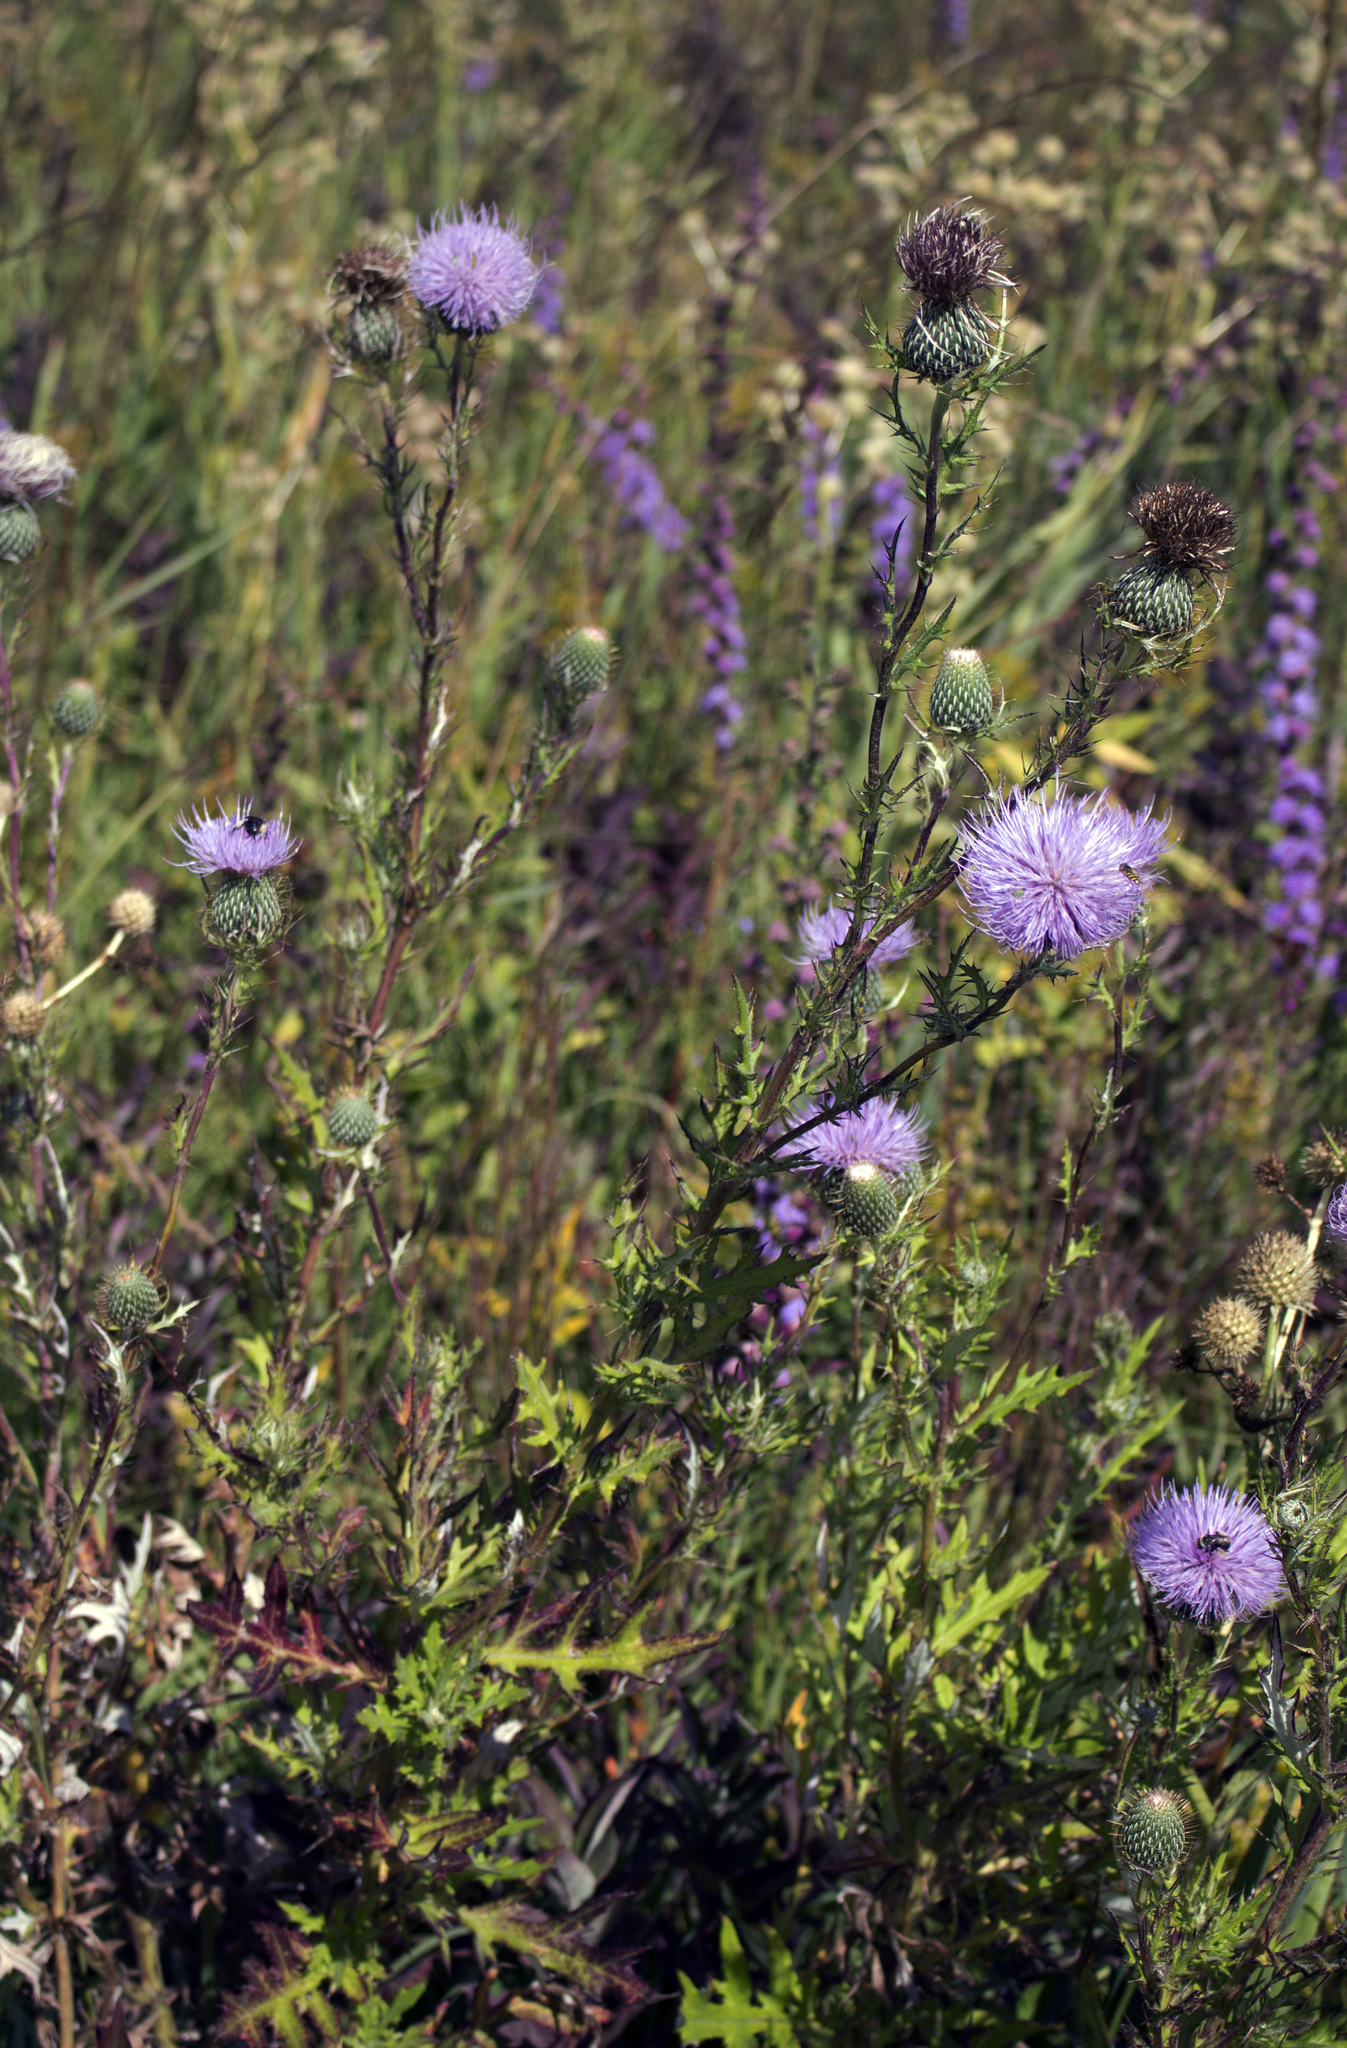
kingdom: Plantae
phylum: Tracheophyta
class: Magnoliopsida
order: Asterales
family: Asteraceae
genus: Cirsium
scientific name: Cirsium discolor
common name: Field thistle
